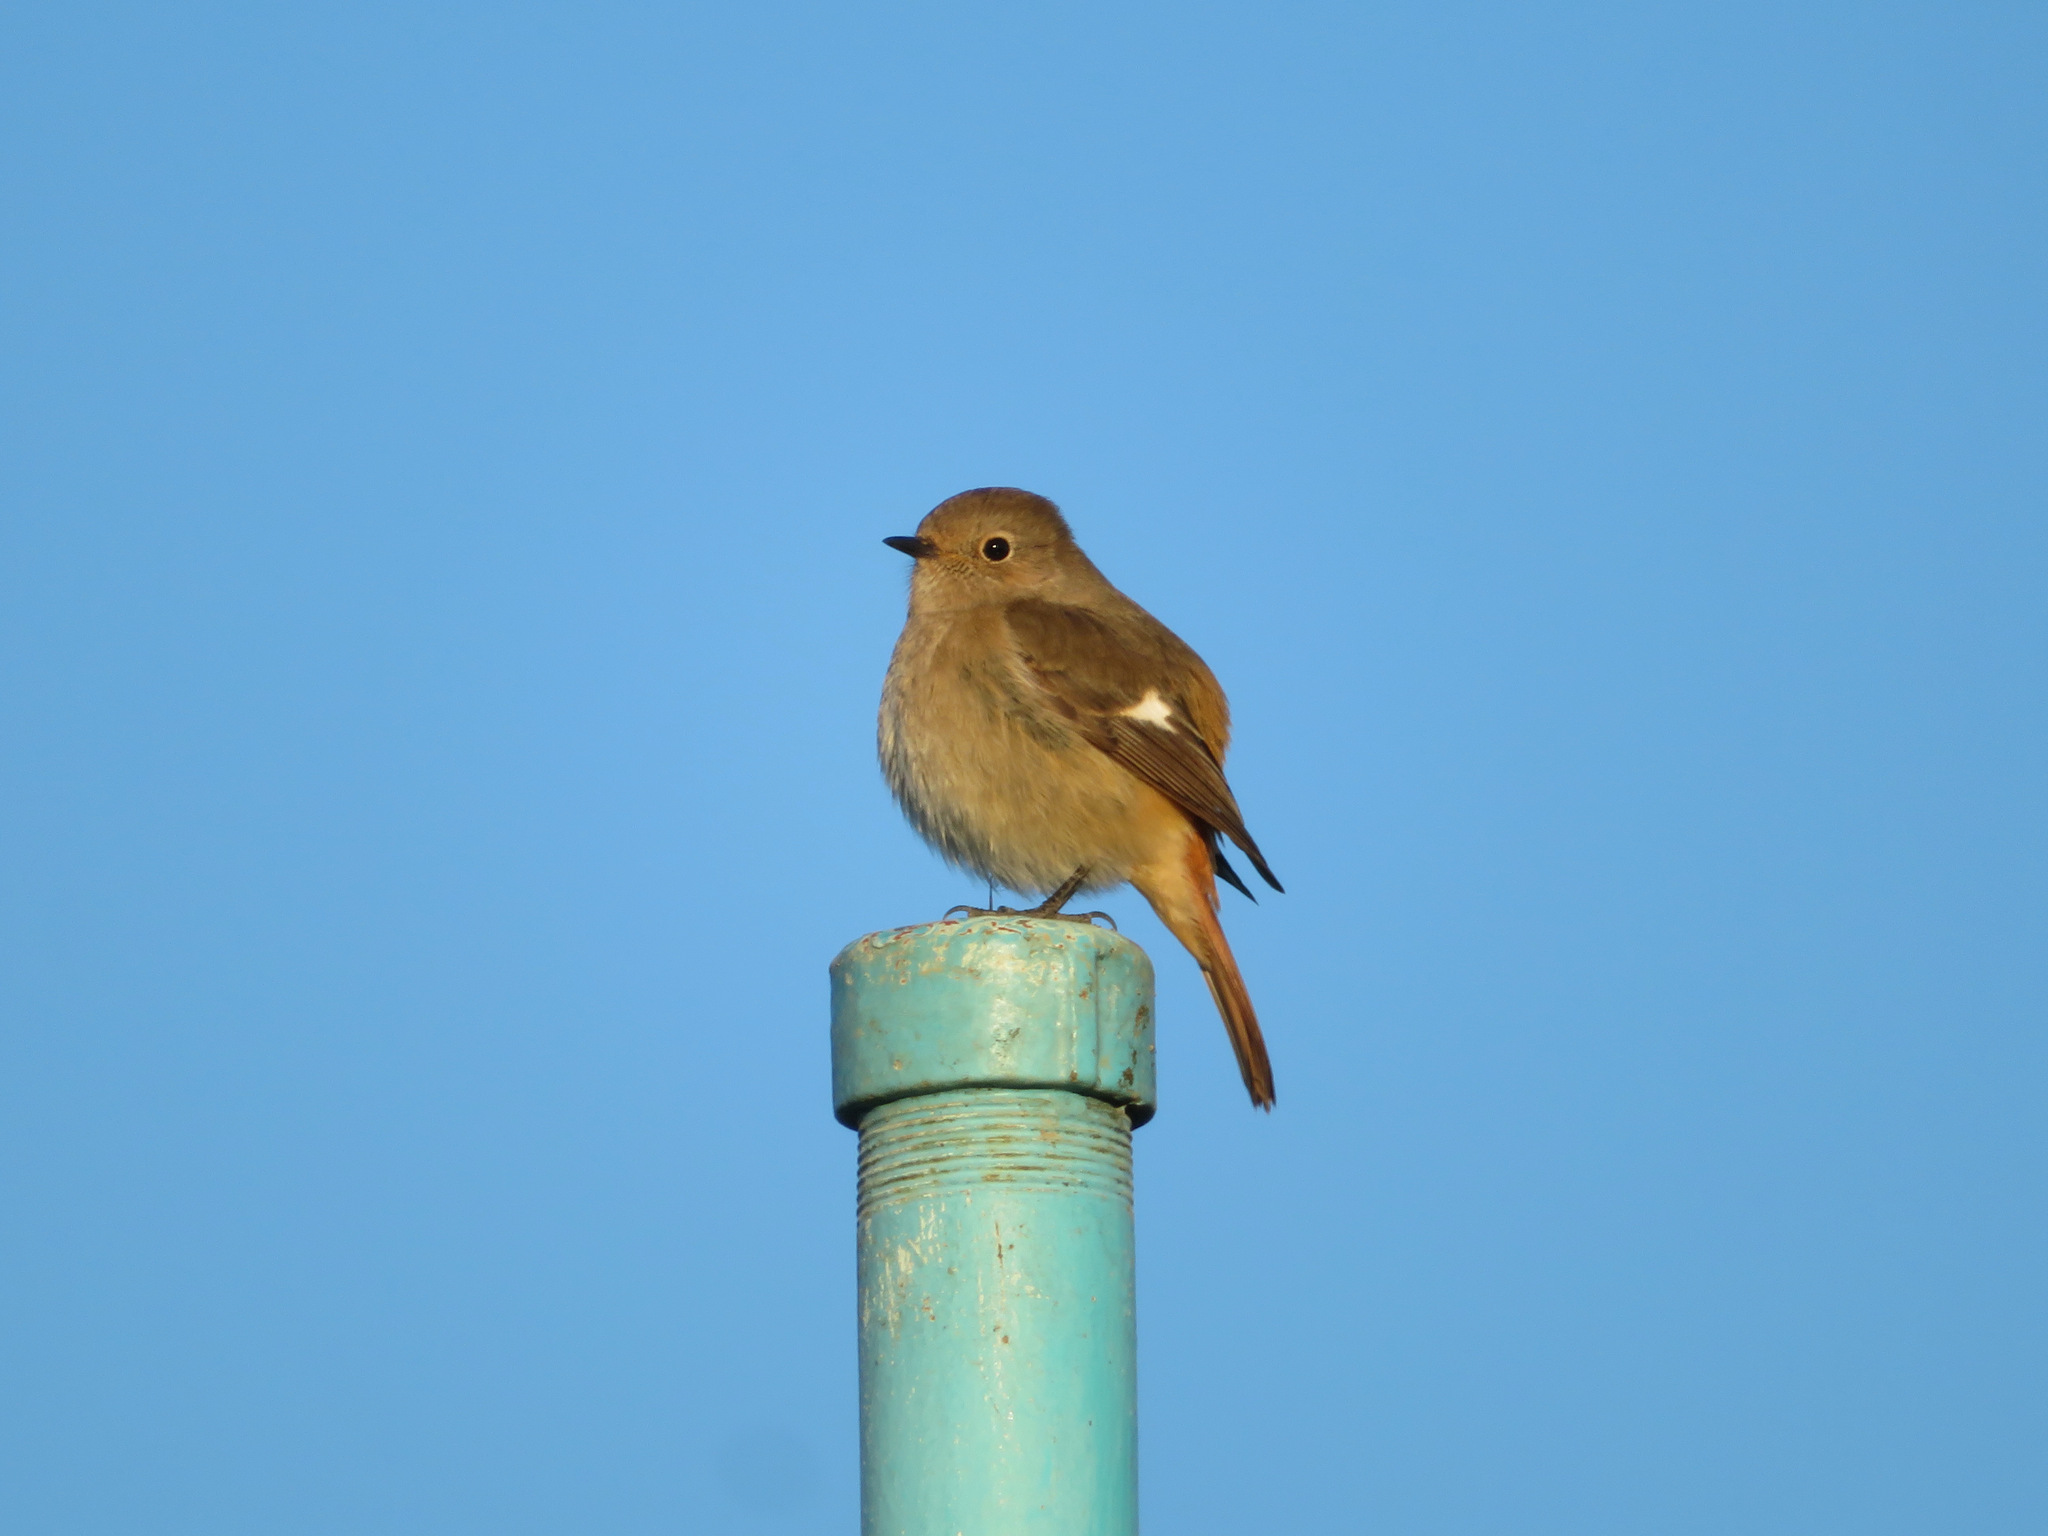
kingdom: Animalia
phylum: Chordata
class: Aves
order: Passeriformes
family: Muscicapidae
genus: Phoenicurus
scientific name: Phoenicurus auroreus
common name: Daurian redstart
